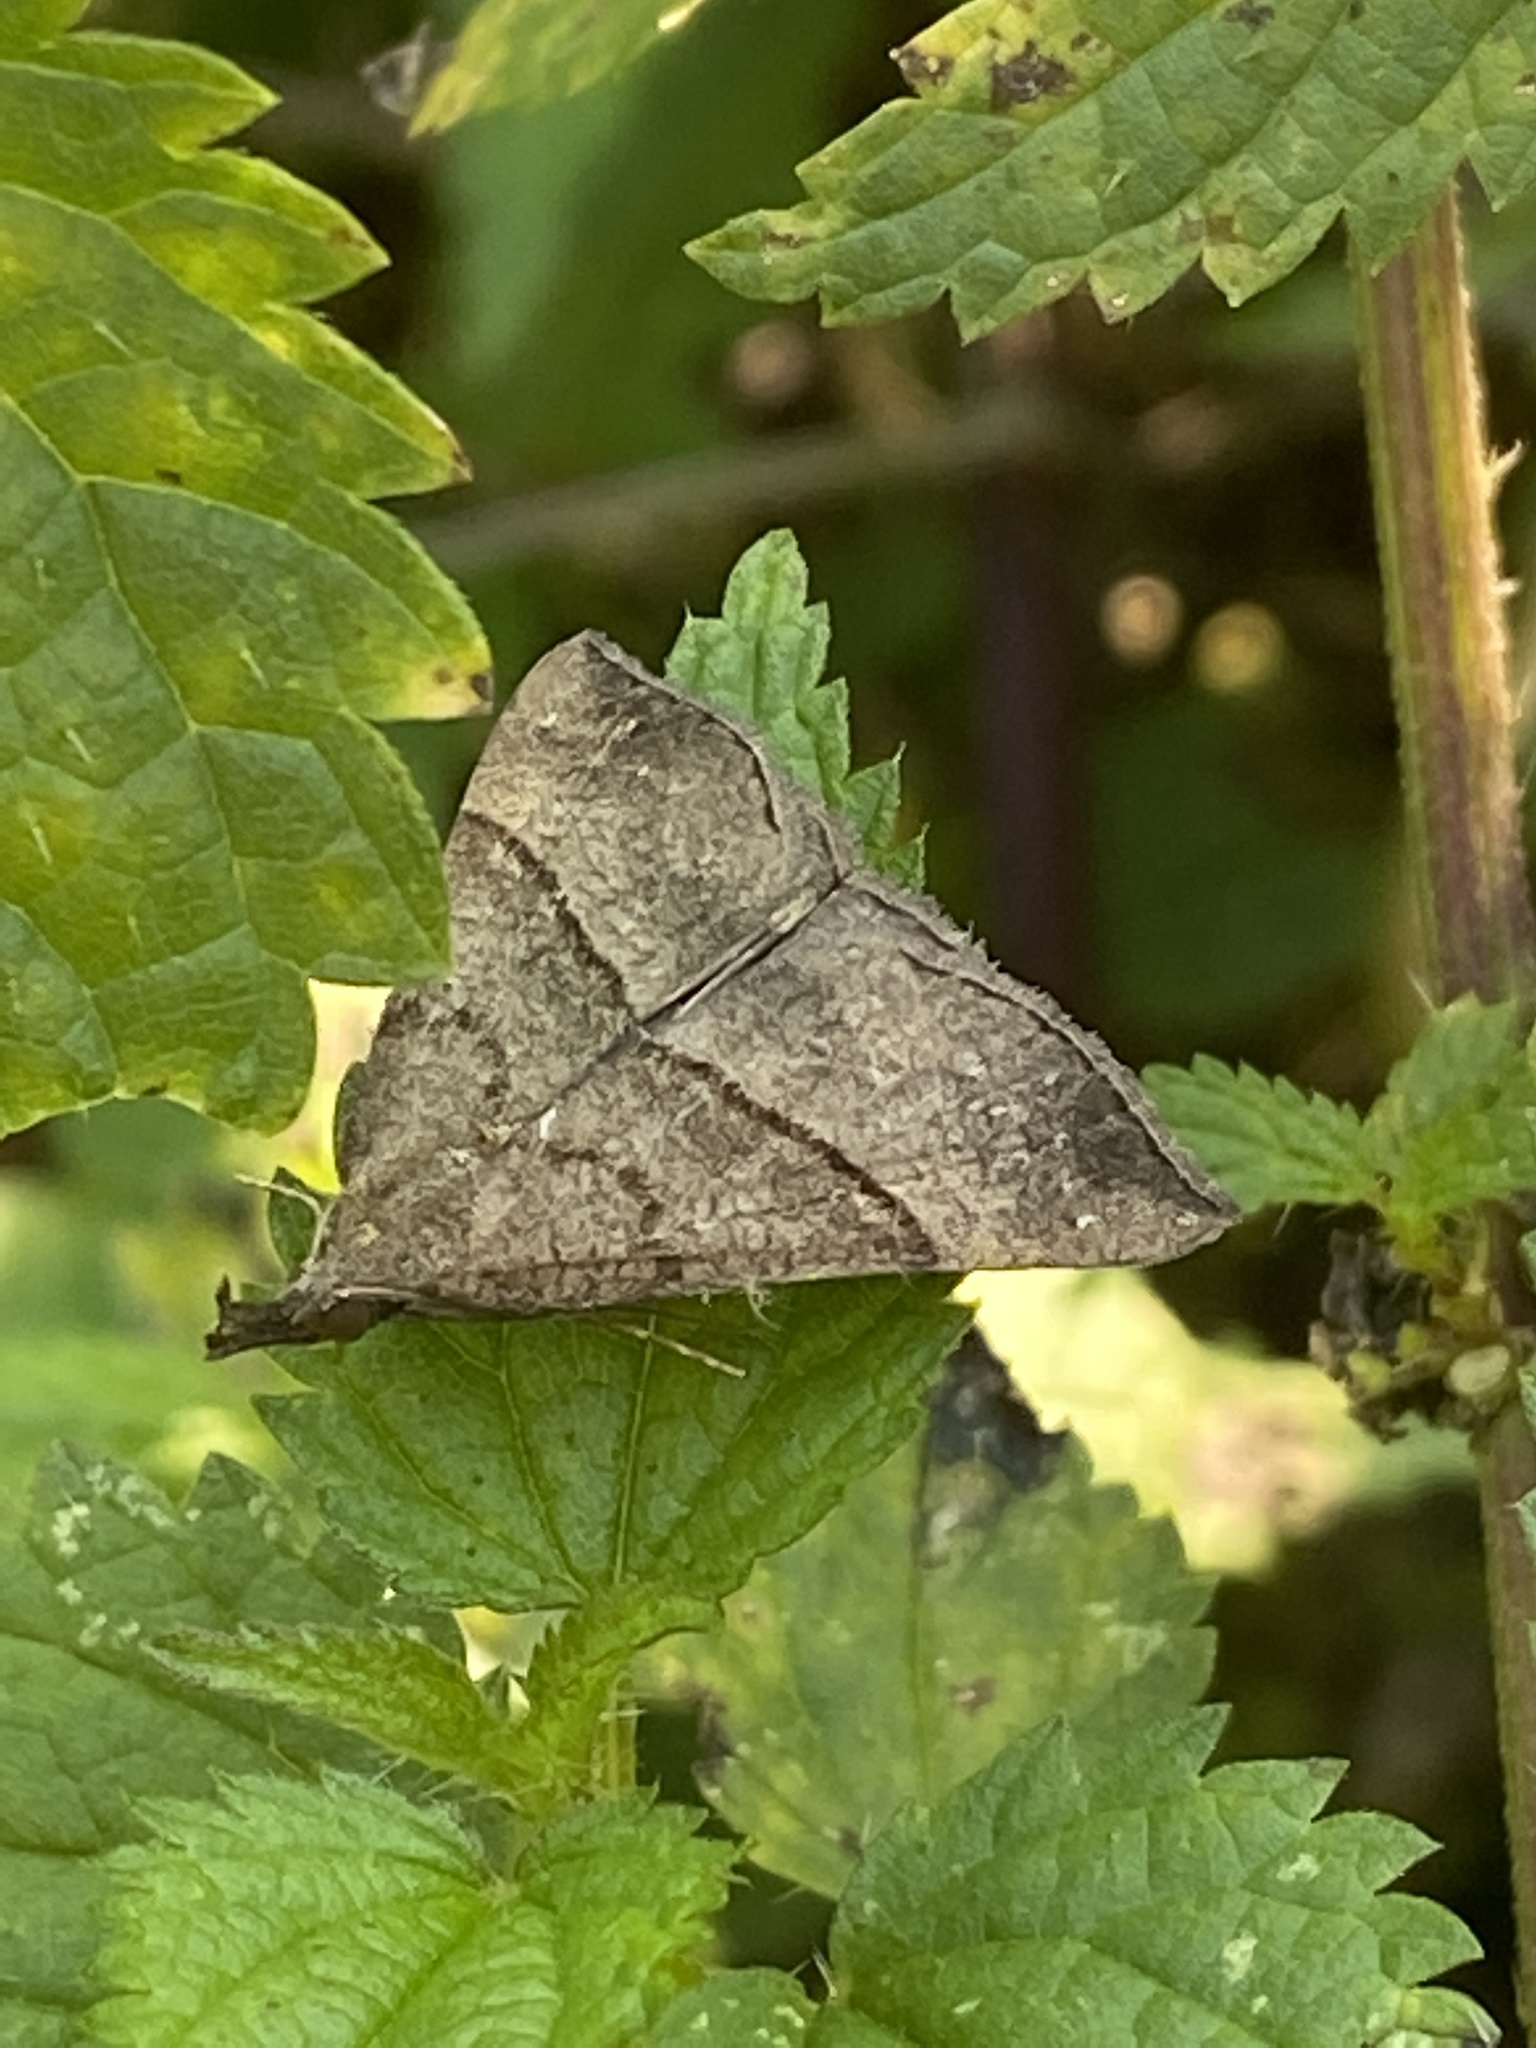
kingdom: Animalia
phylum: Arthropoda
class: Insecta
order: Lepidoptera
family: Erebidae
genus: Hypena
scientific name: Hypena proboscidalis
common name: Snout
